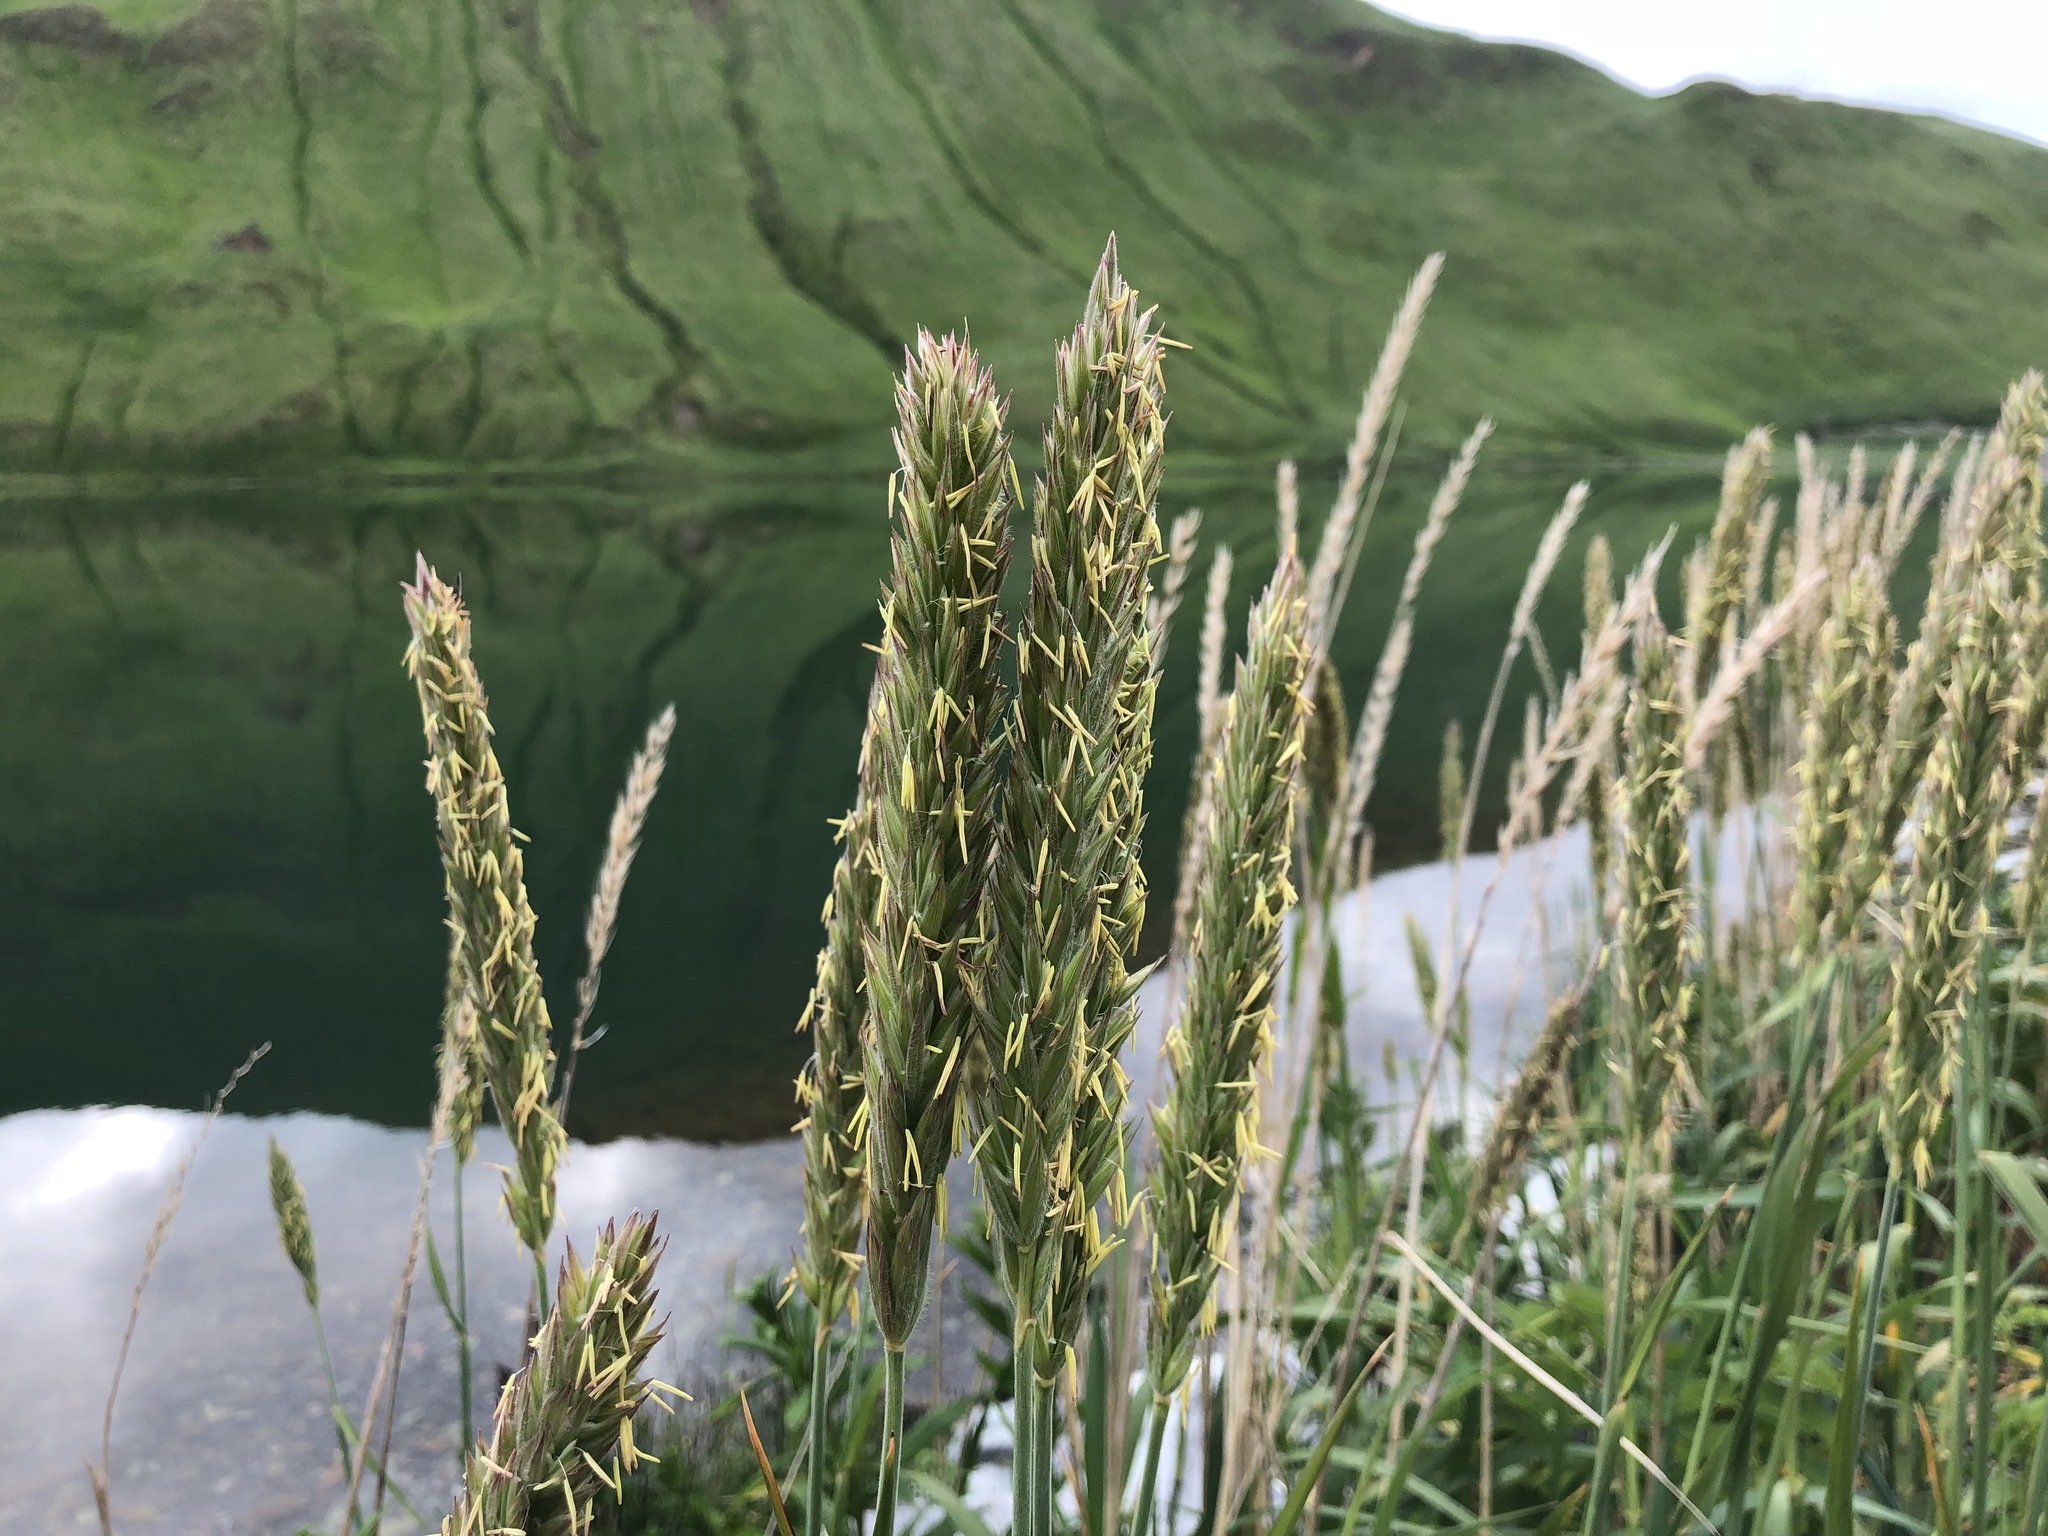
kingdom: Plantae
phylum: Tracheophyta
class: Liliopsida
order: Poales
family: Poaceae
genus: Leymus
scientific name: Leymus mollis
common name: American dune grass
